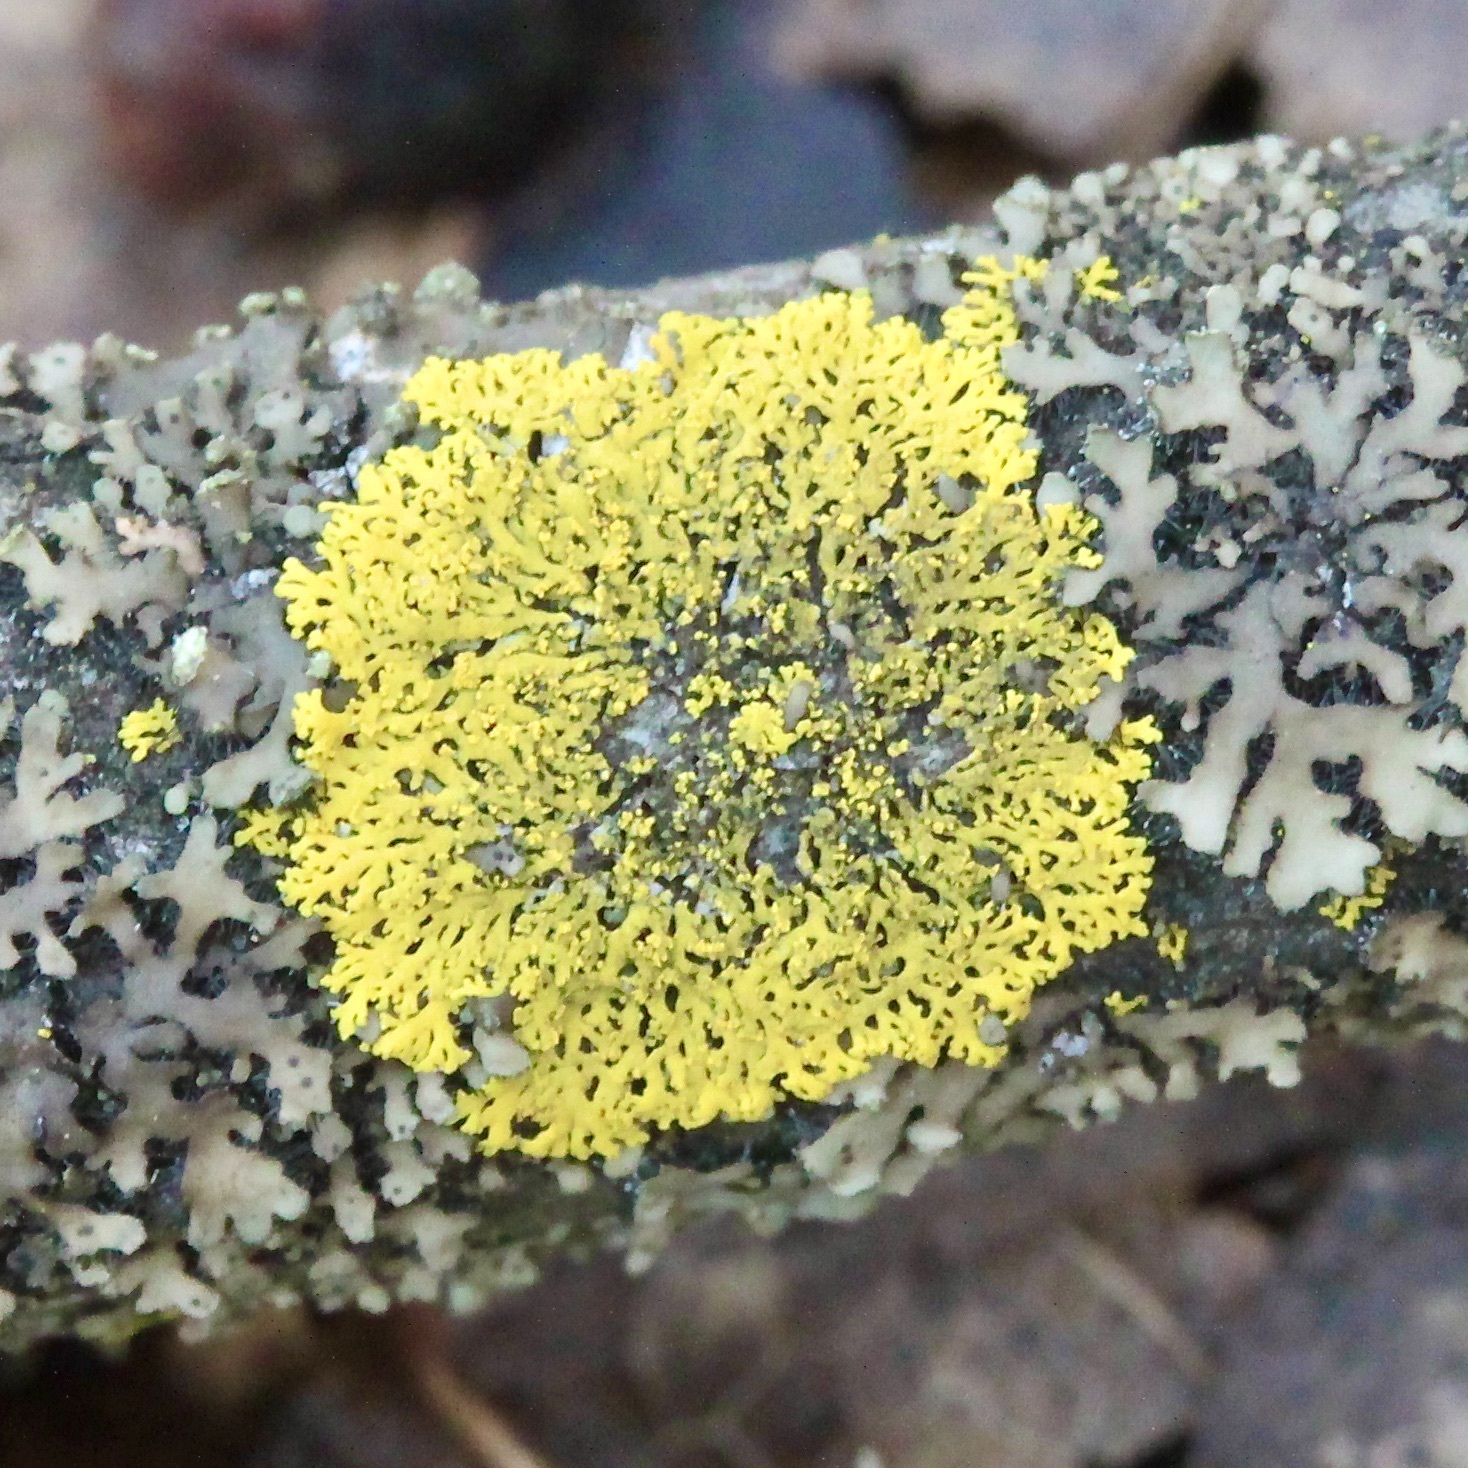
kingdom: Fungi
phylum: Ascomycota
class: Candelariomycetes
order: Candelariales
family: Candelariaceae
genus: Candelaria
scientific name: Candelaria concolor
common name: Candleflame lichen
